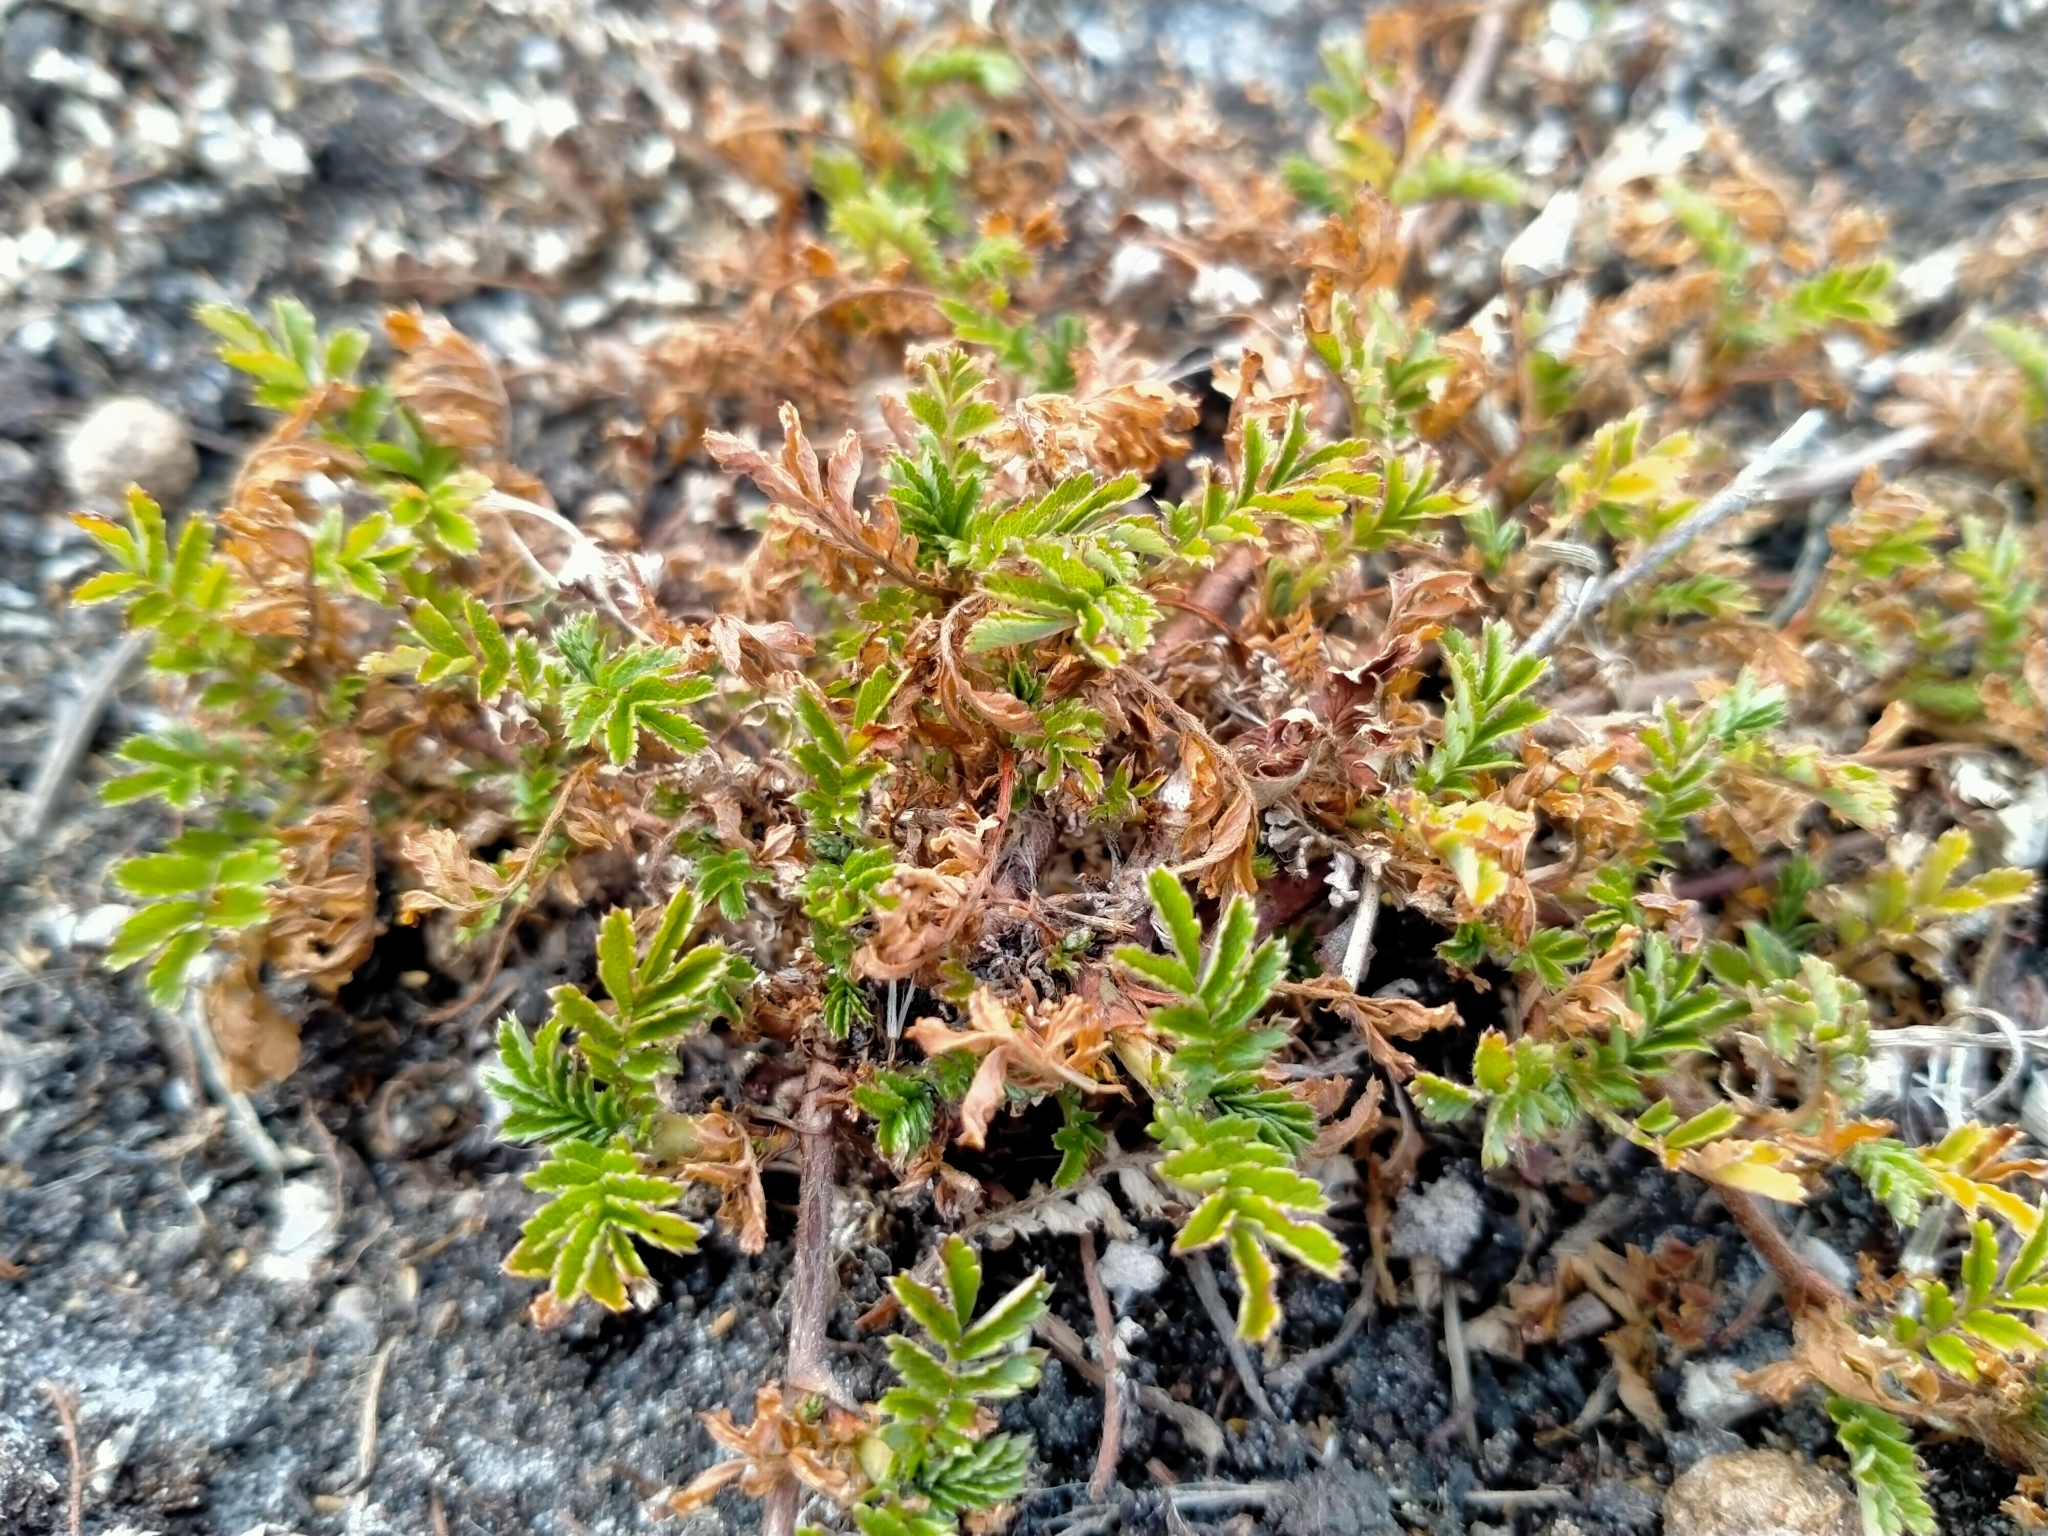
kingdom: Plantae
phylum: Tracheophyta
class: Magnoliopsida
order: Rosales
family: Rosaceae
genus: Acaena
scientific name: Acaena novae-zelandiae
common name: Pirri-pirri-bur
